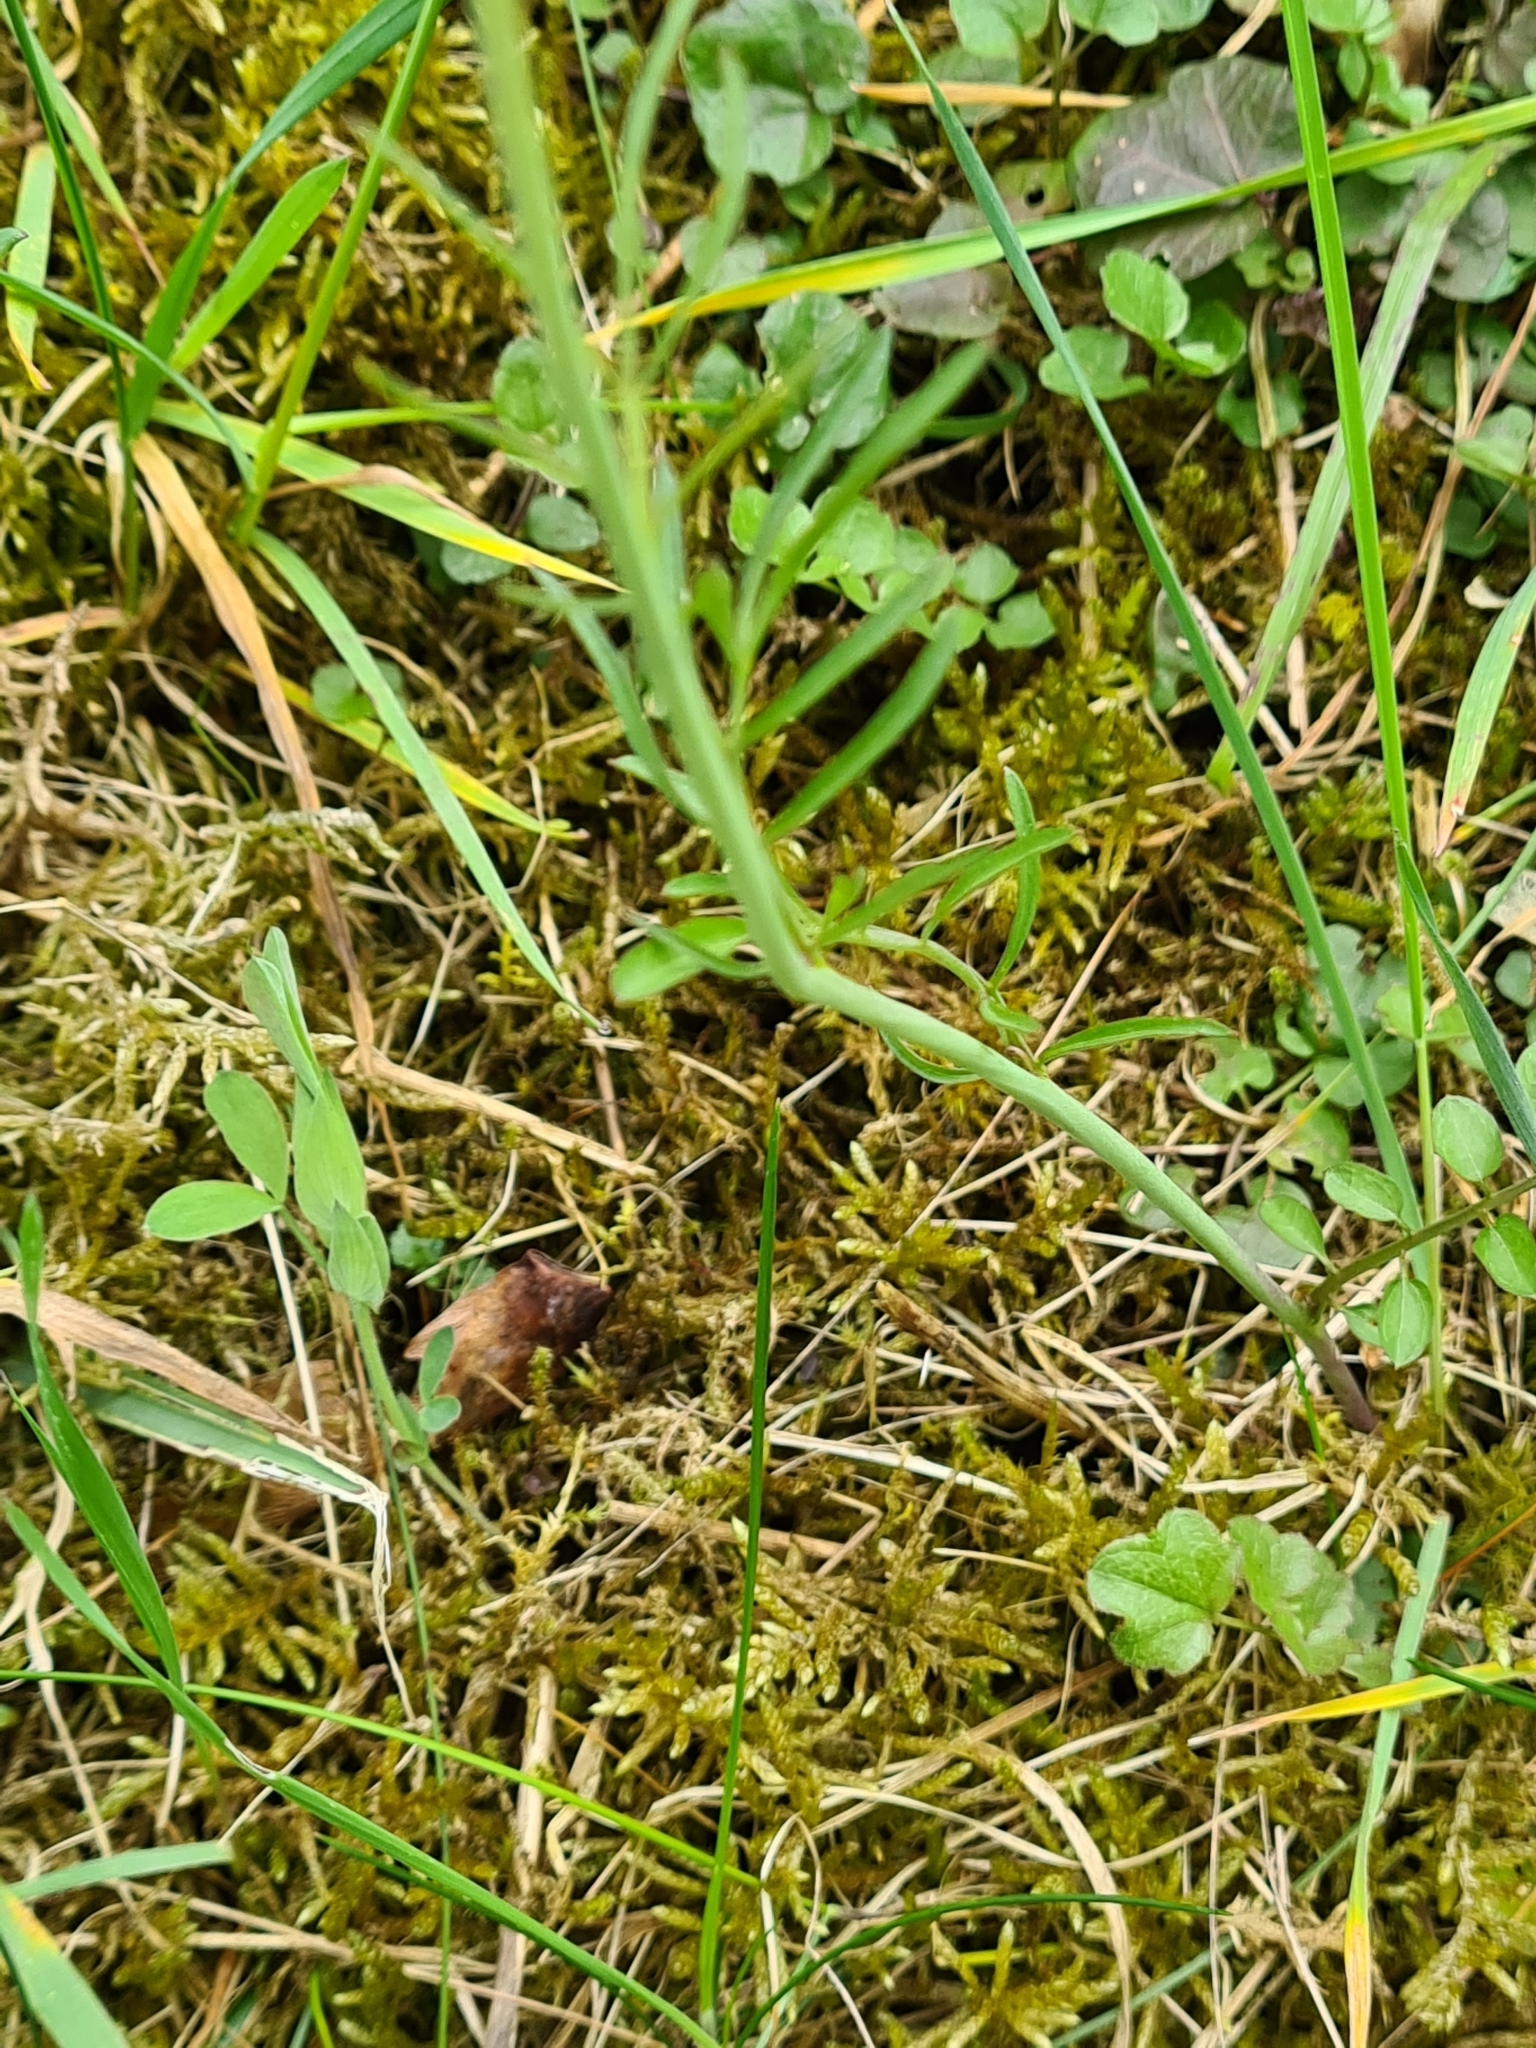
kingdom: Plantae
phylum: Tracheophyta
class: Magnoliopsida
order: Brassicales
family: Brassicaceae
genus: Cardamine
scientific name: Cardamine pratensis
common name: Cuckoo flower
